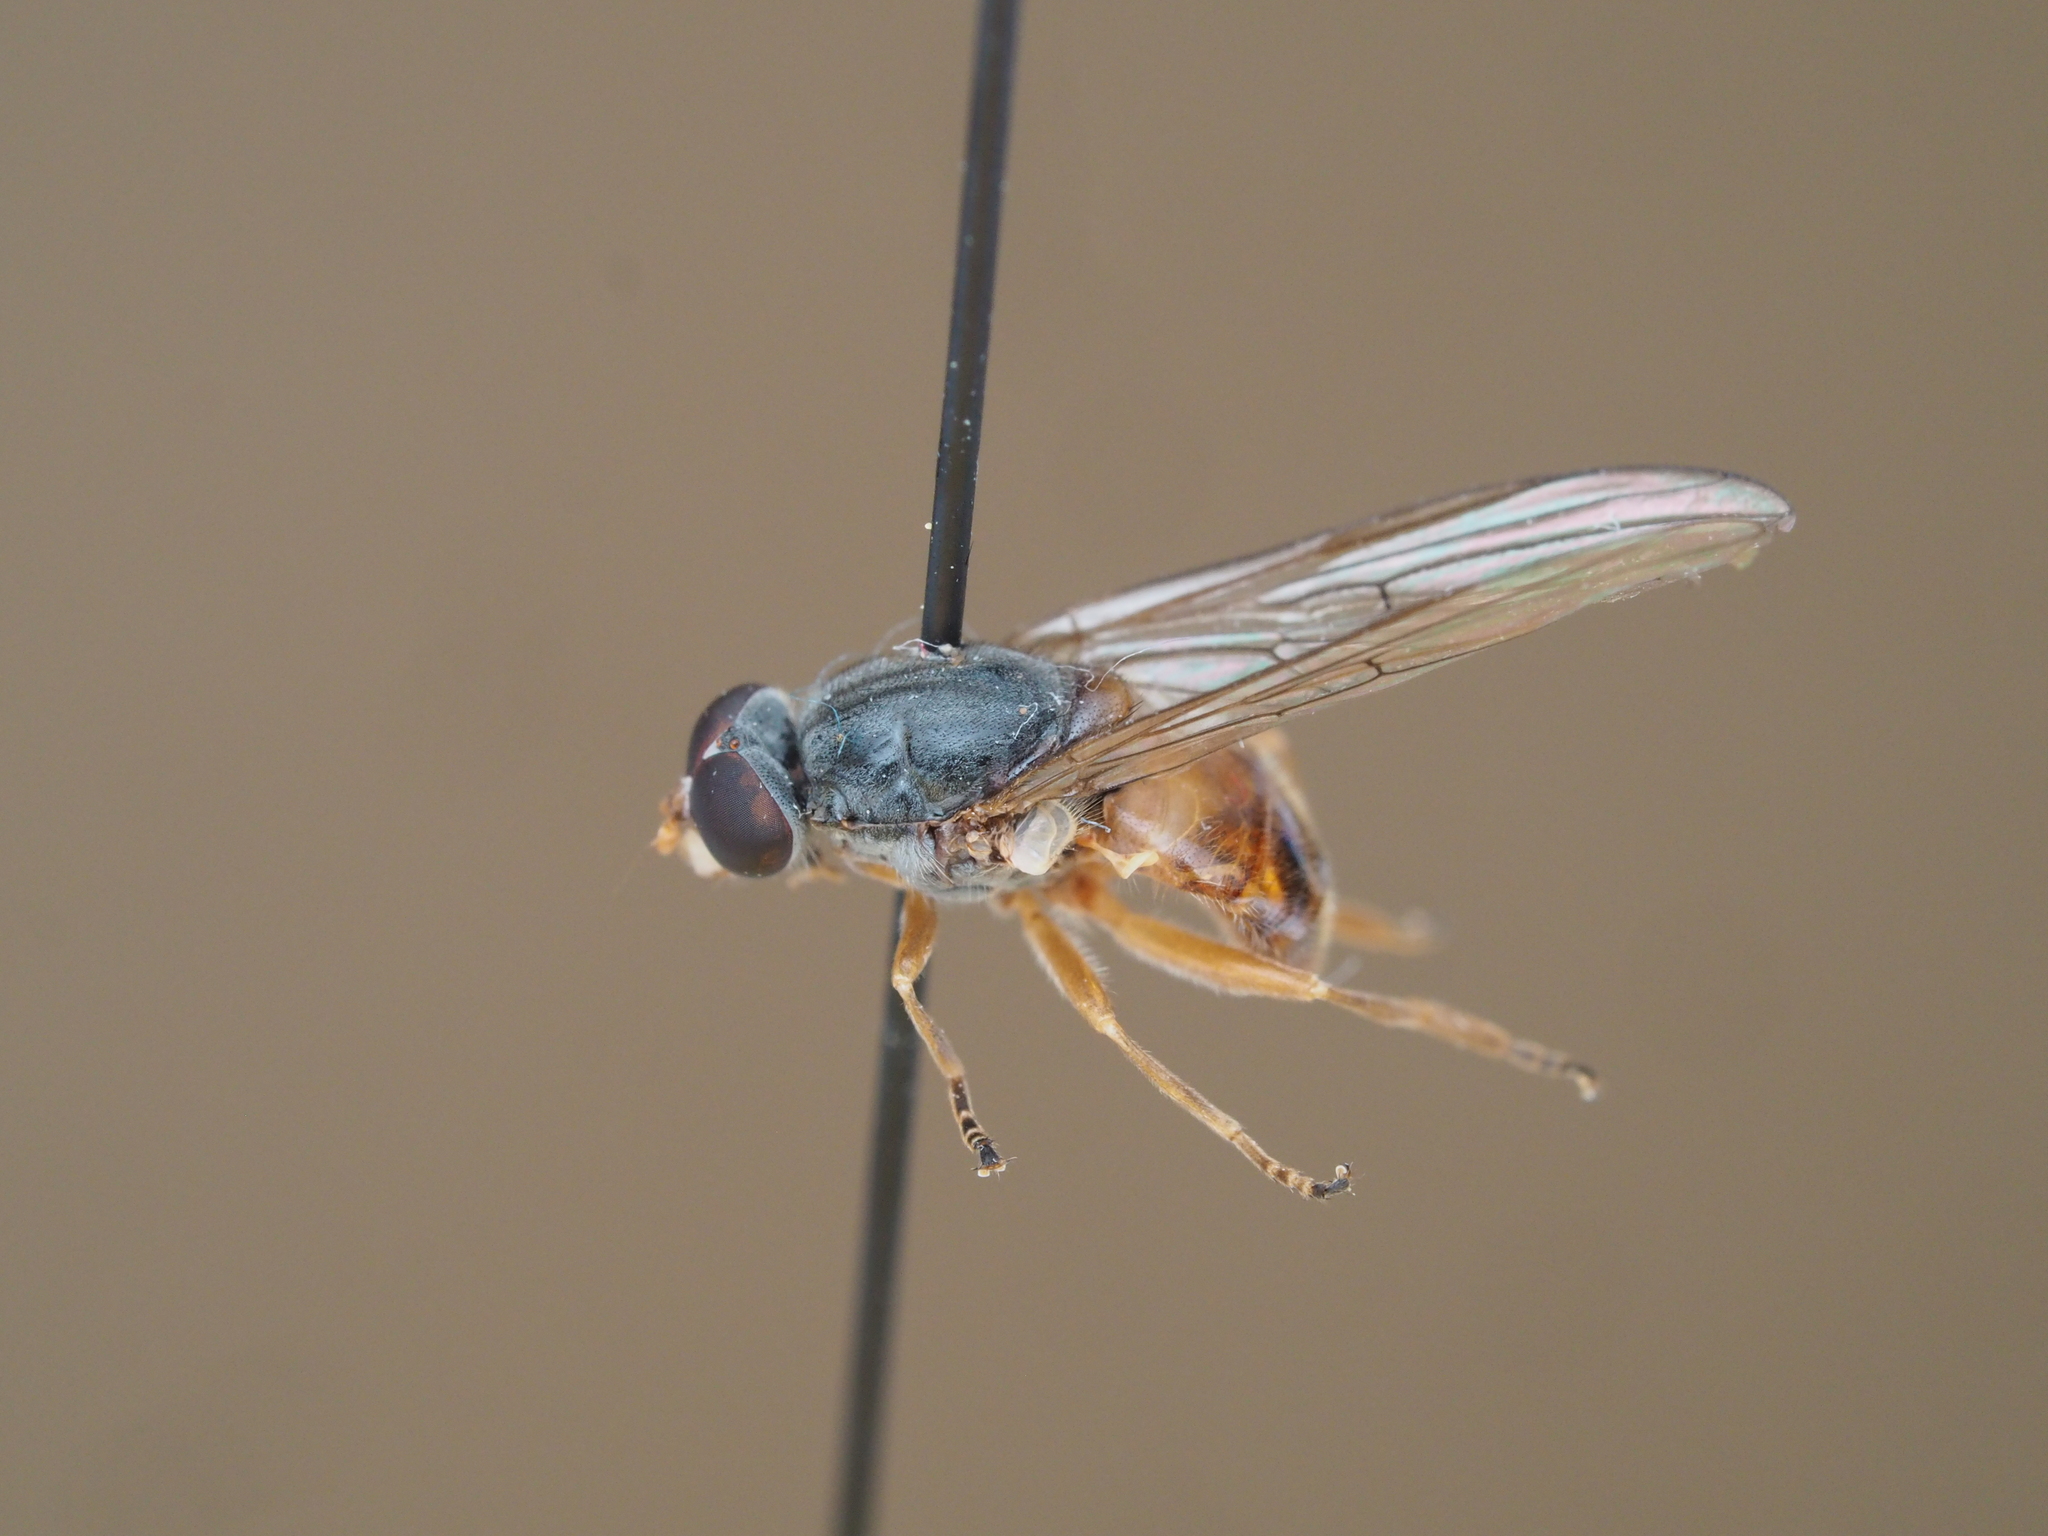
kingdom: Animalia
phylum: Arthropoda
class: Insecta
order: Diptera
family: Syrphidae
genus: Brachyopa
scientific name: Brachyopa insensilis
